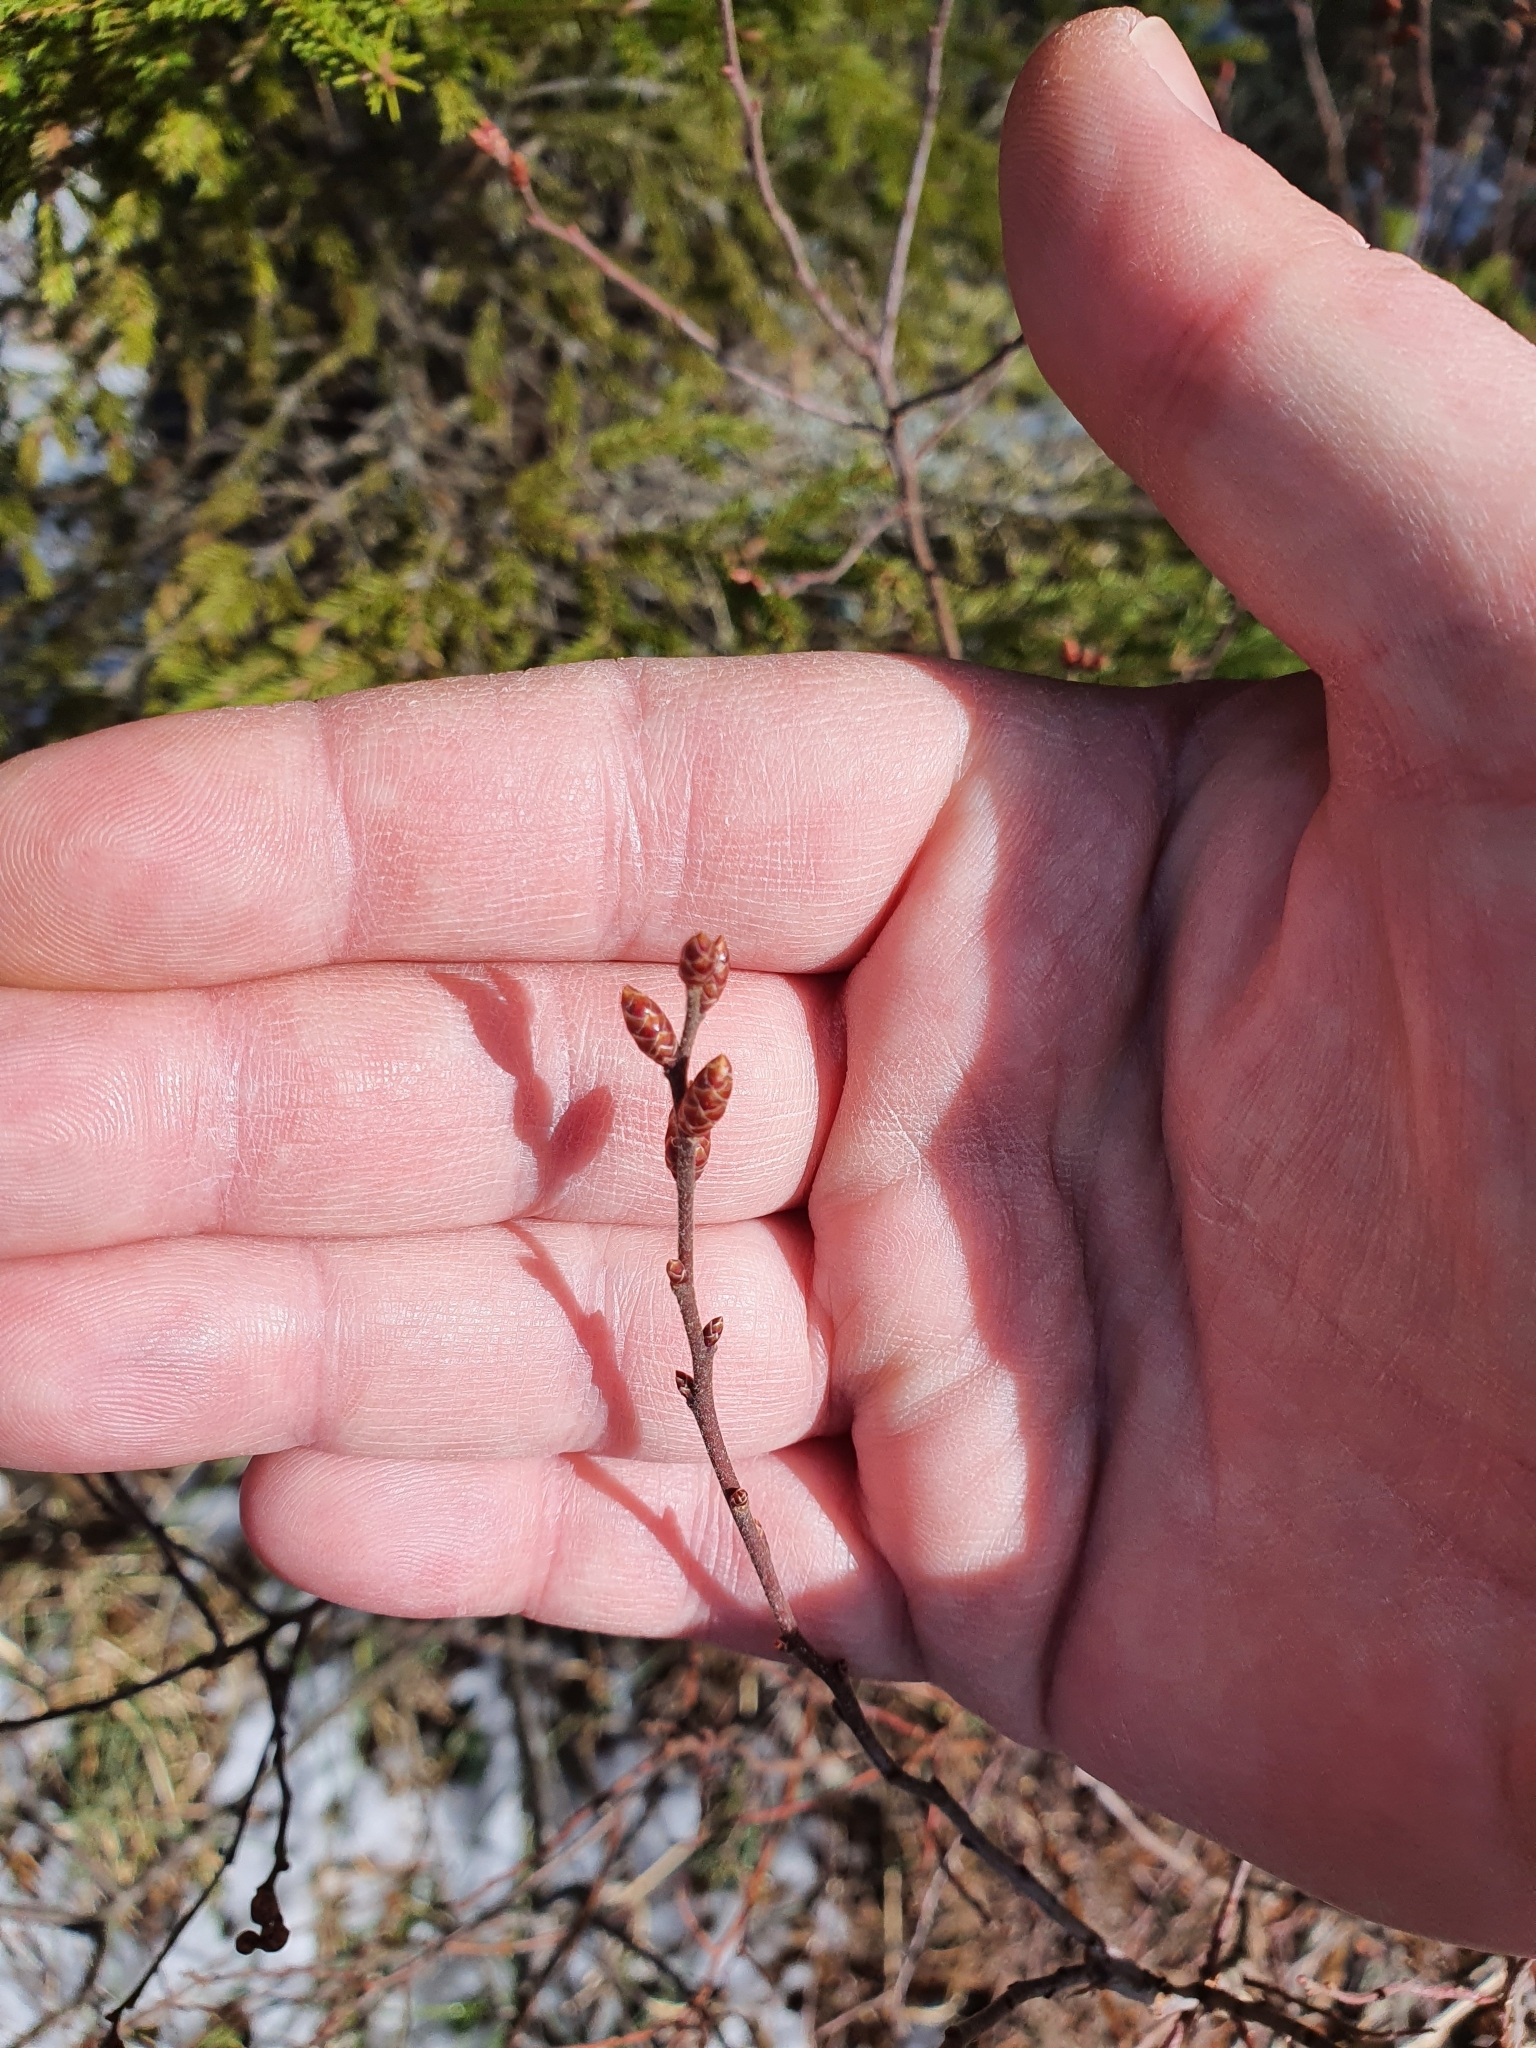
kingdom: Plantae
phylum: Tracheophyta
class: Magnoliopsida
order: Fagales
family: Myricaceae
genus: Myrica
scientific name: Myrica gale
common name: Sweet gale
